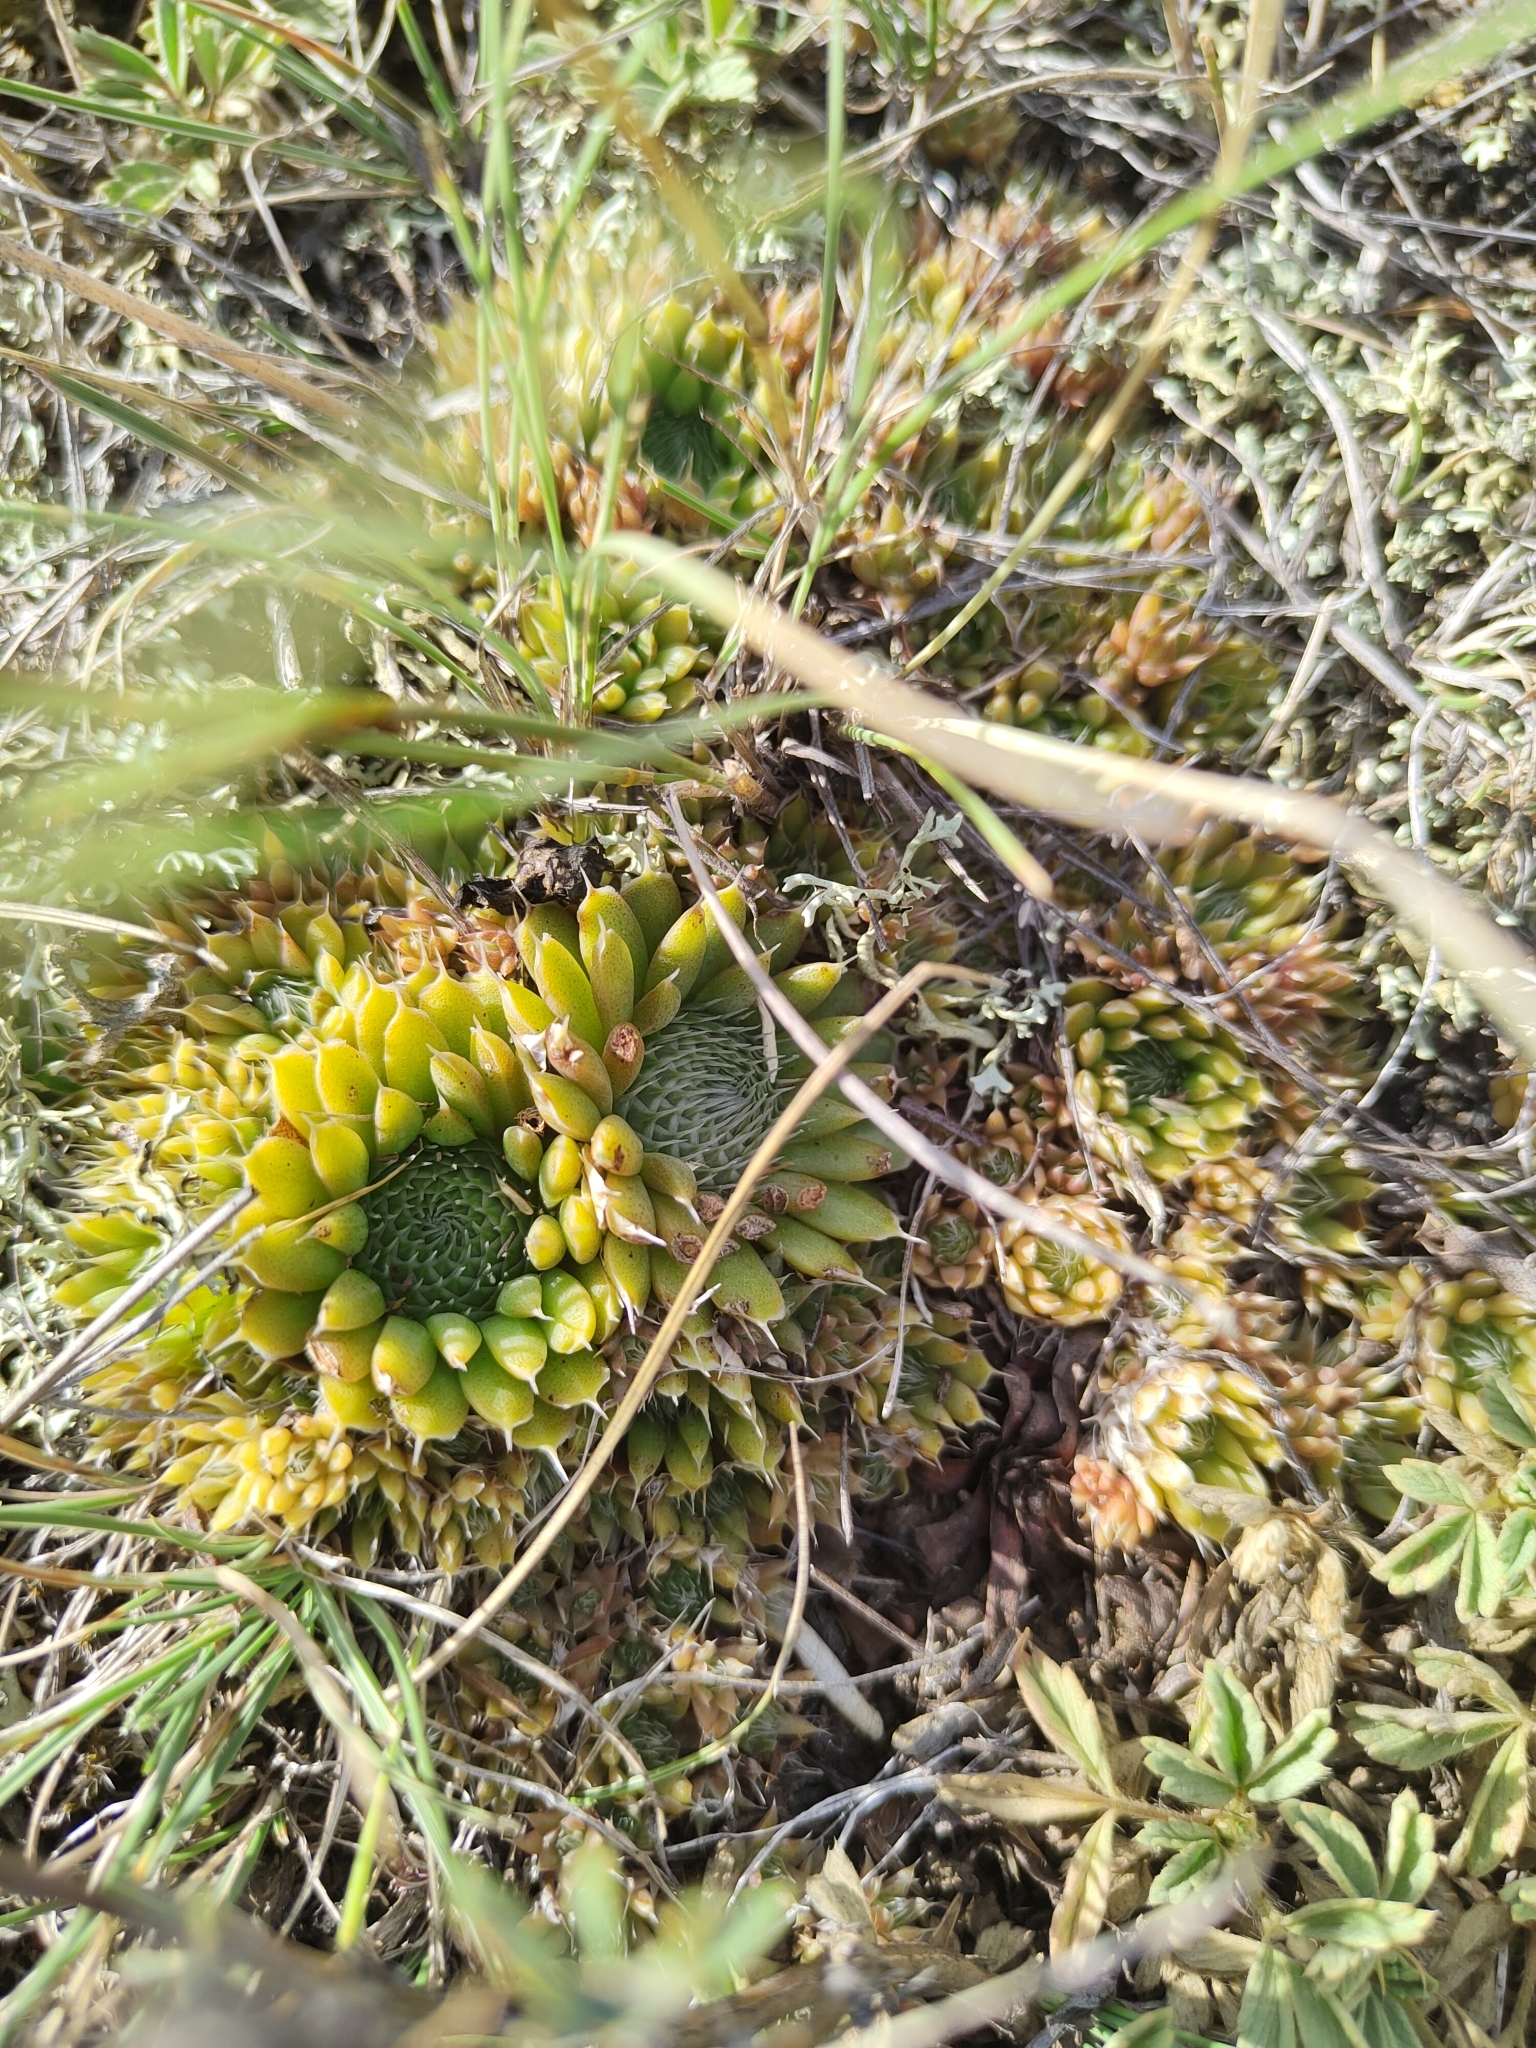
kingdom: Plantae
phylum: Tracheophyta
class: Magnoliopsida
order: Saxifragales
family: Crassulaceae
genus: Orostachys
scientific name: Orostachys spinosa
